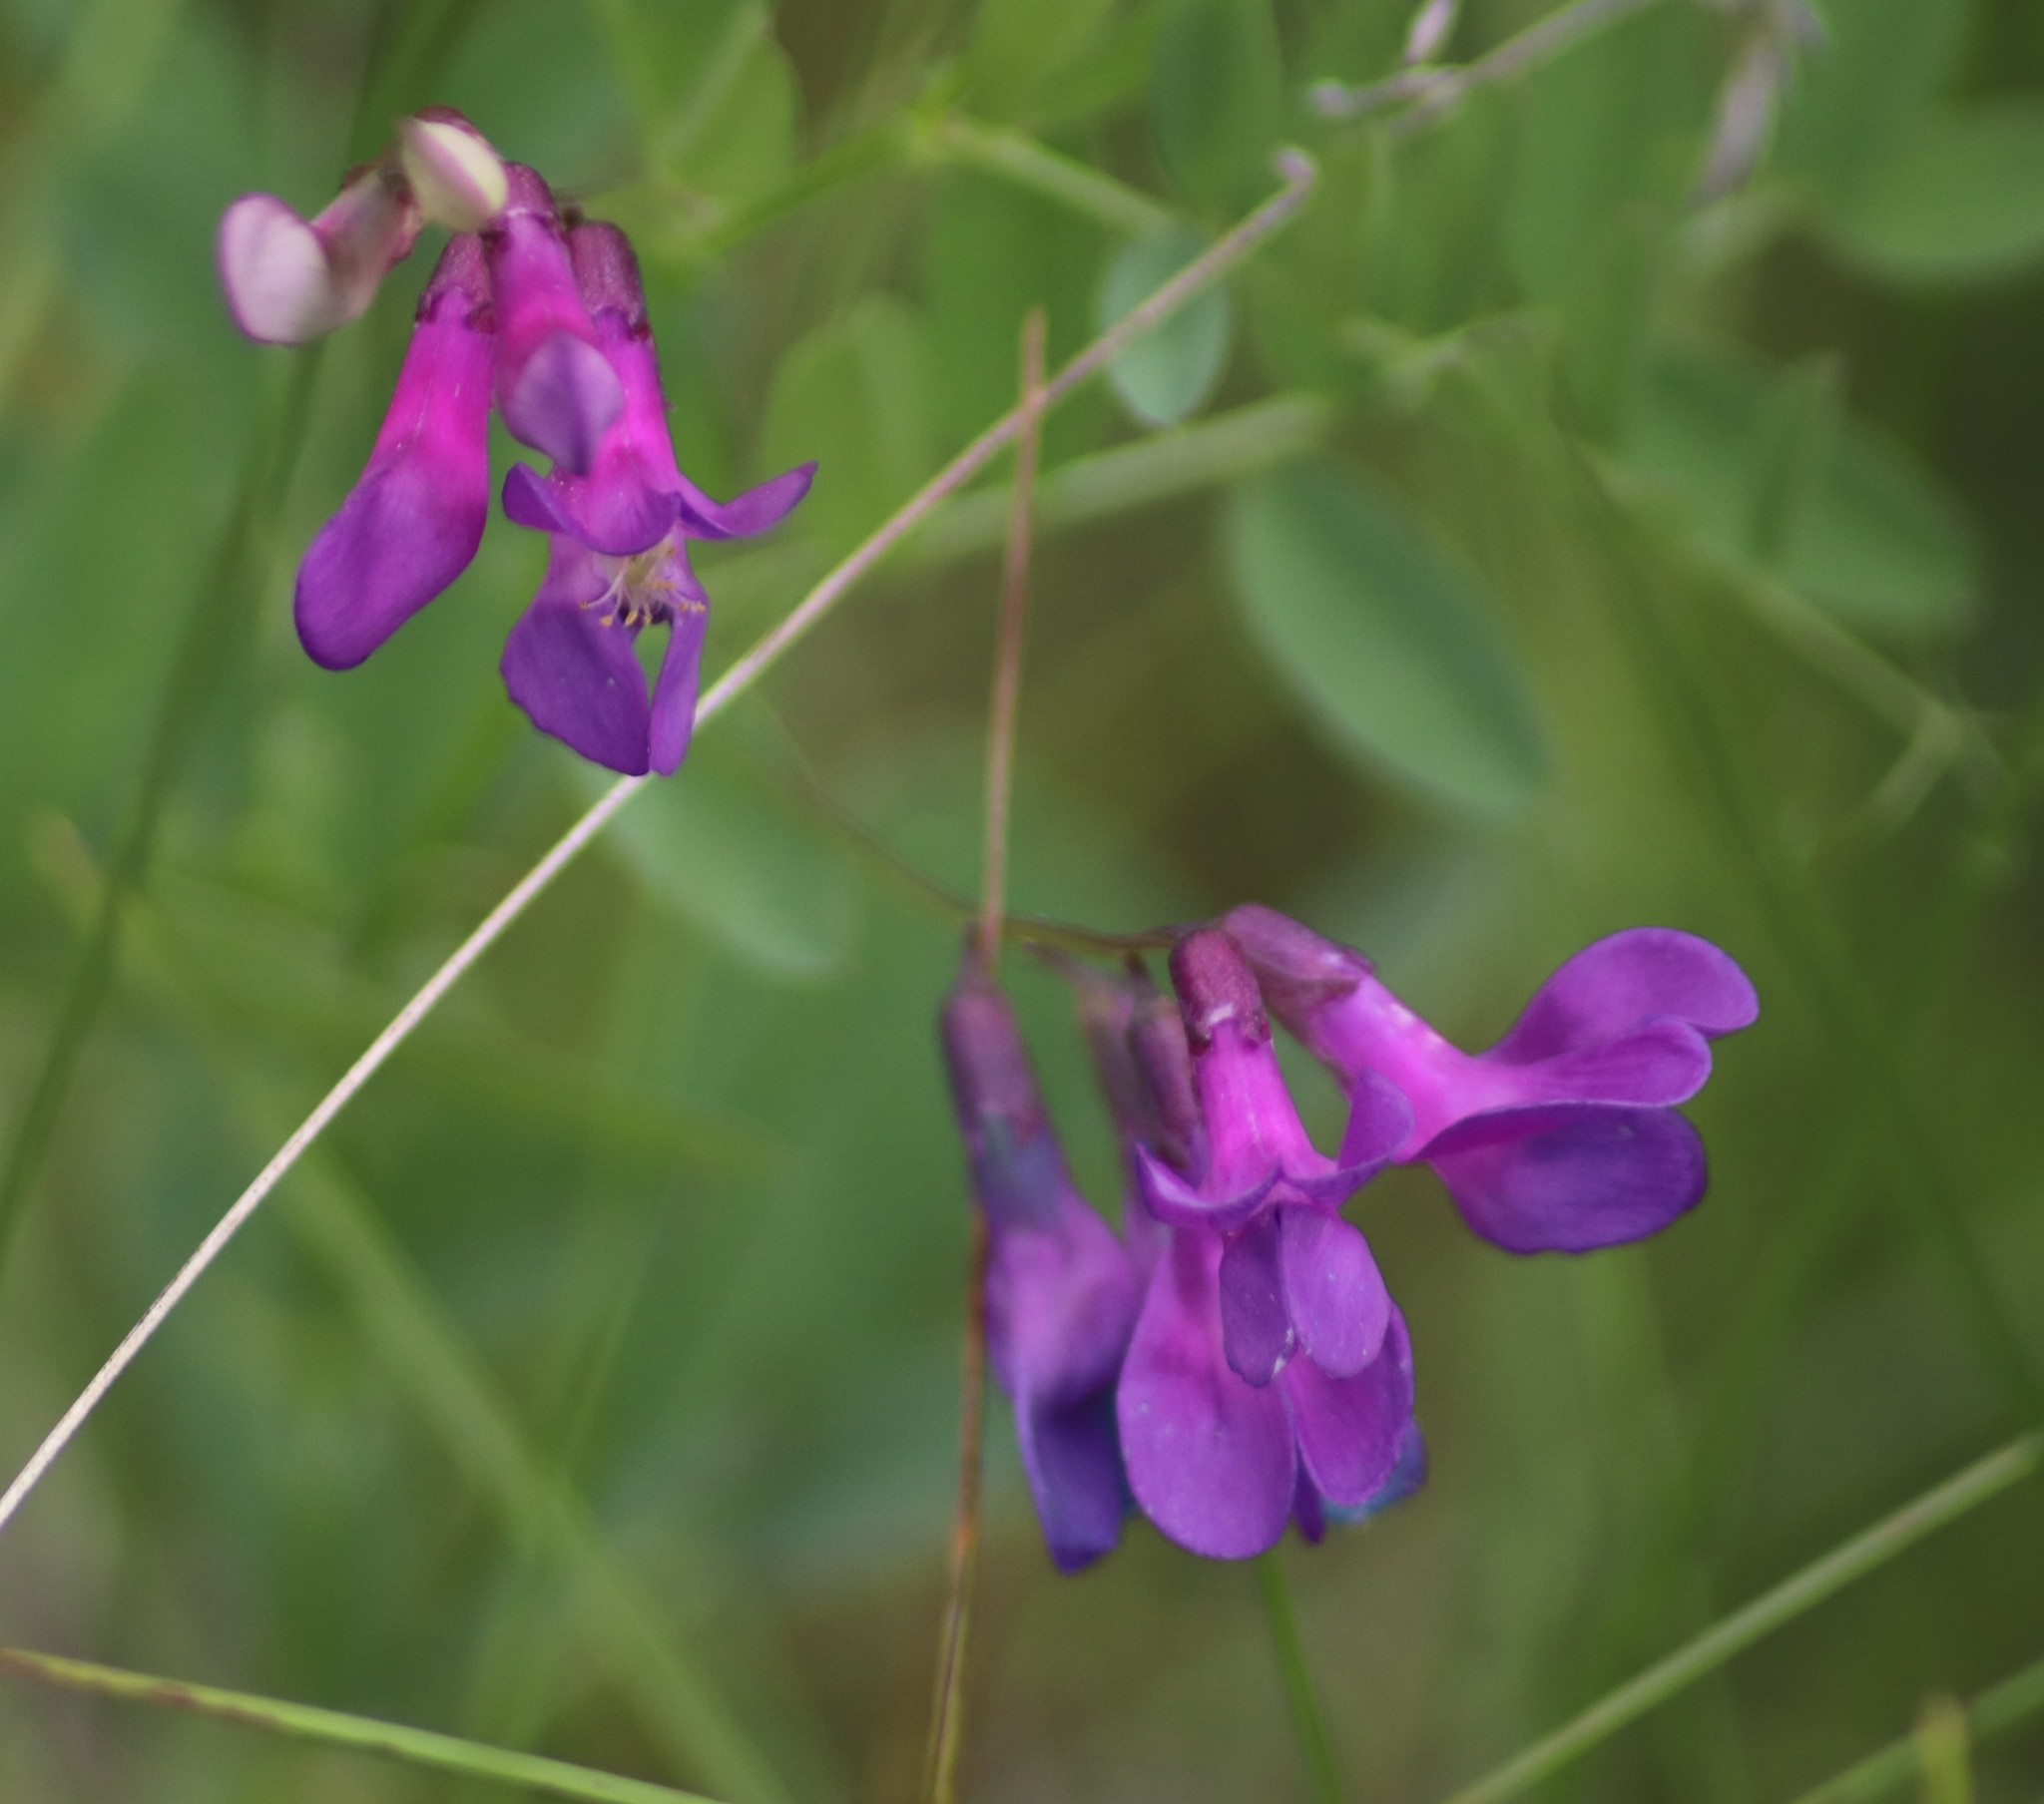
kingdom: Plantae
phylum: Tracheophyta
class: Magnoliopsida
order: Fabales
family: Fabaceae
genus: Vicia
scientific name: Vicia americana
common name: American vetch
